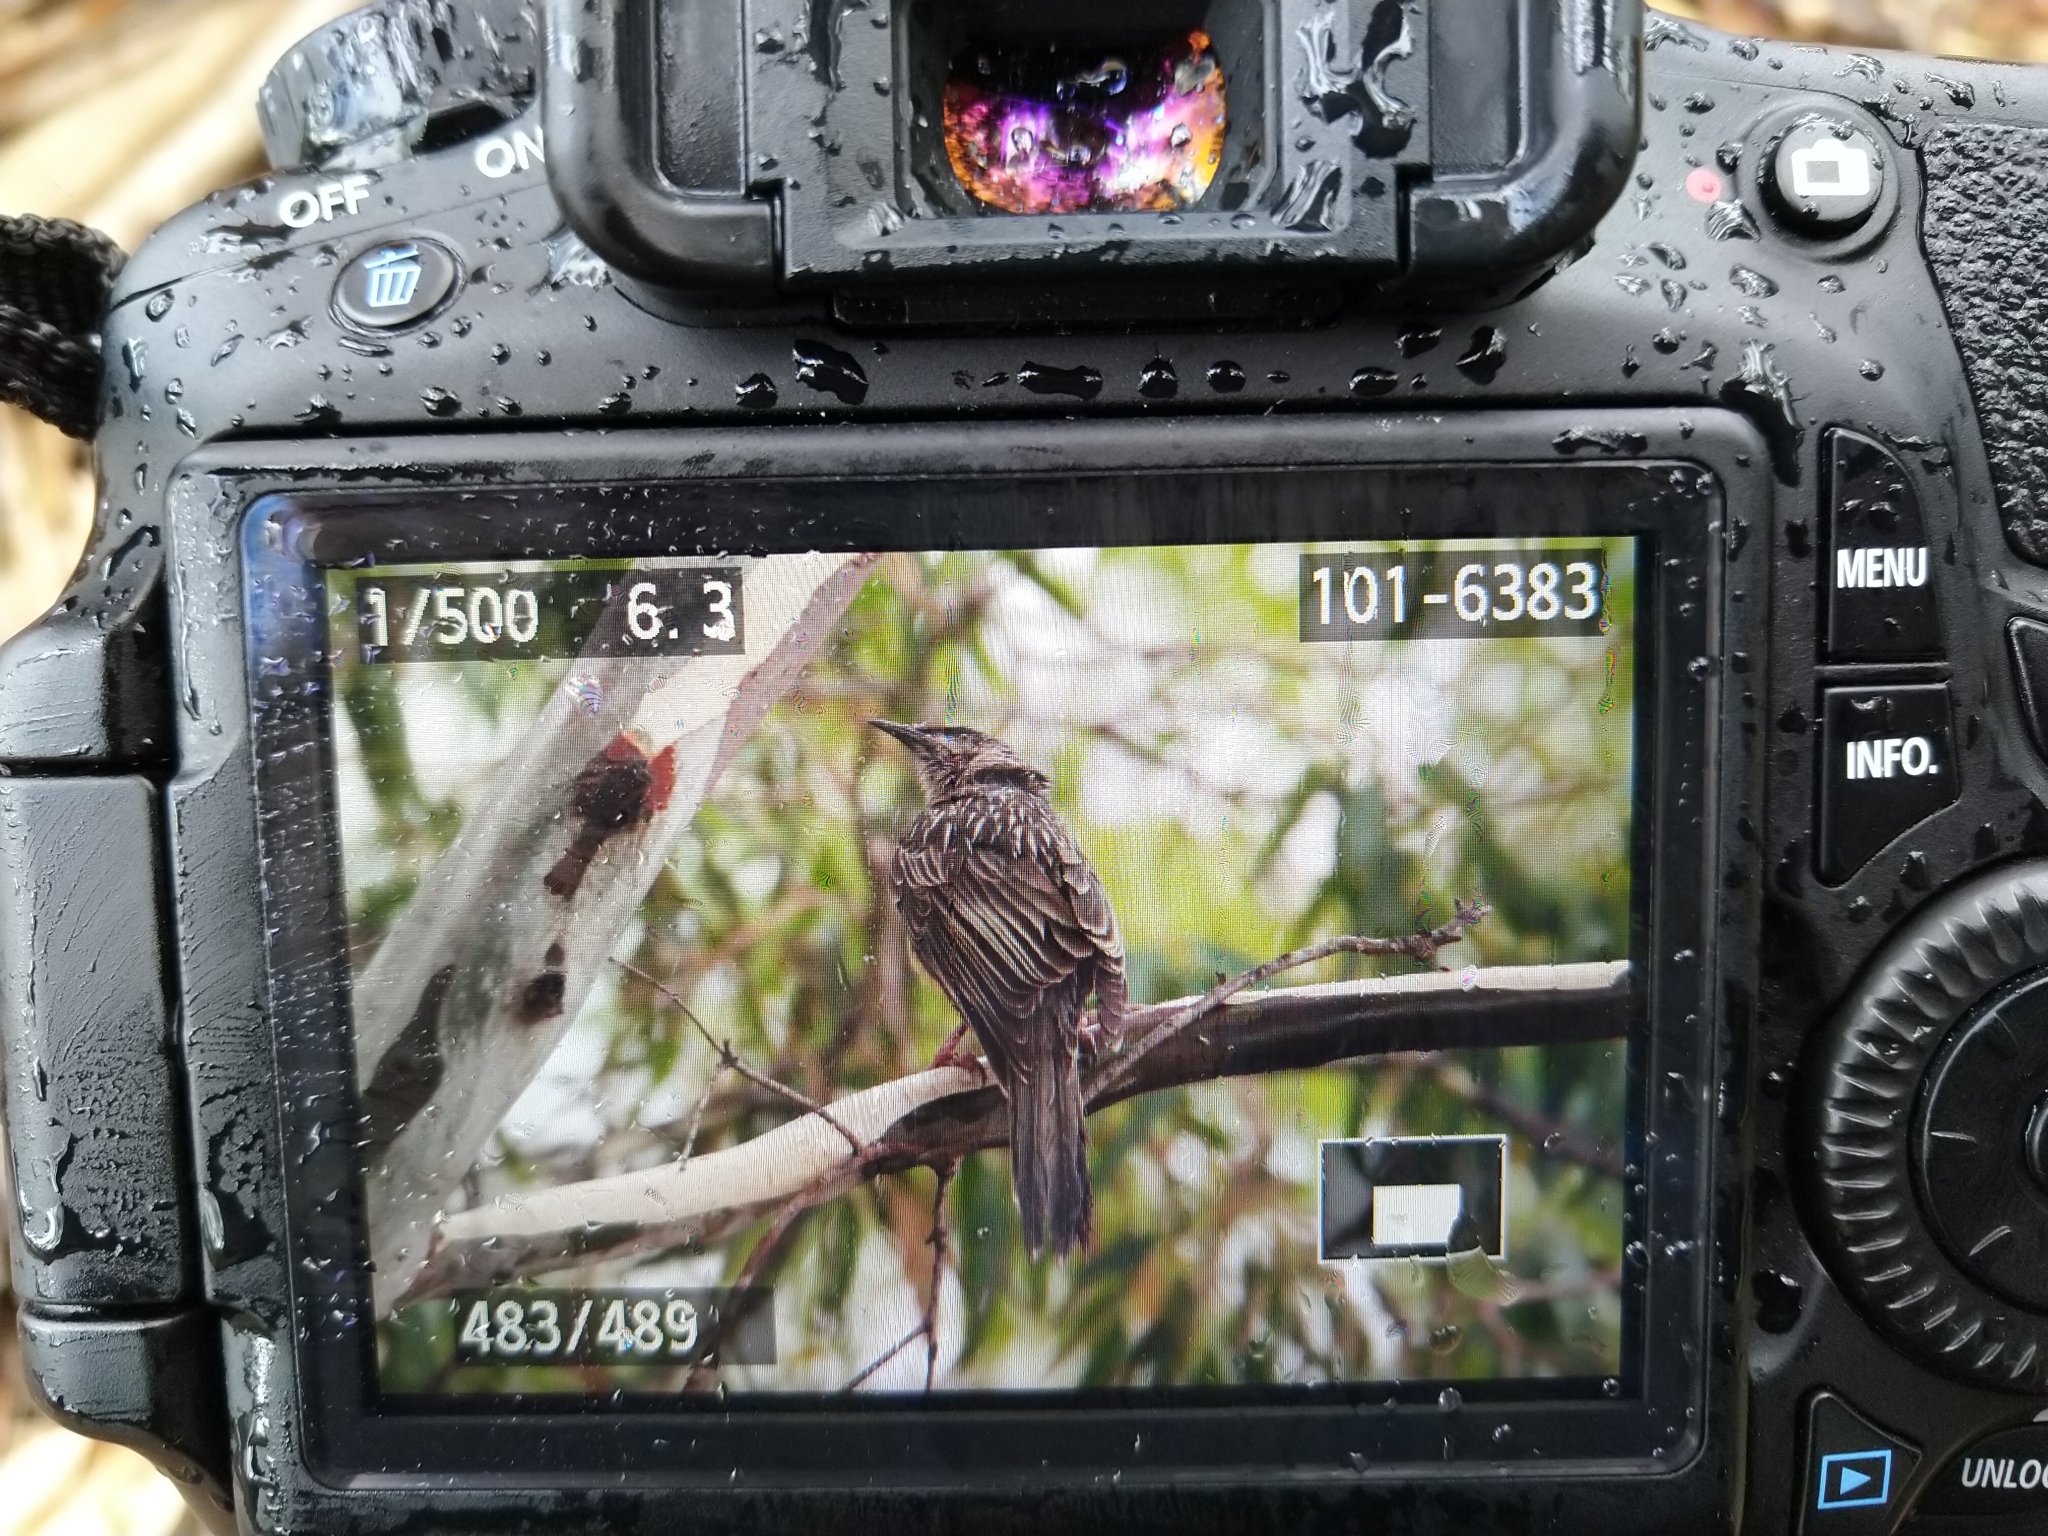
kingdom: Animalia
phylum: Chordata
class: Aves
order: Passeriformes
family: Meliphagidae
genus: Anthochaera
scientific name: Anthochaera carunculata
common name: Red wattlebird
